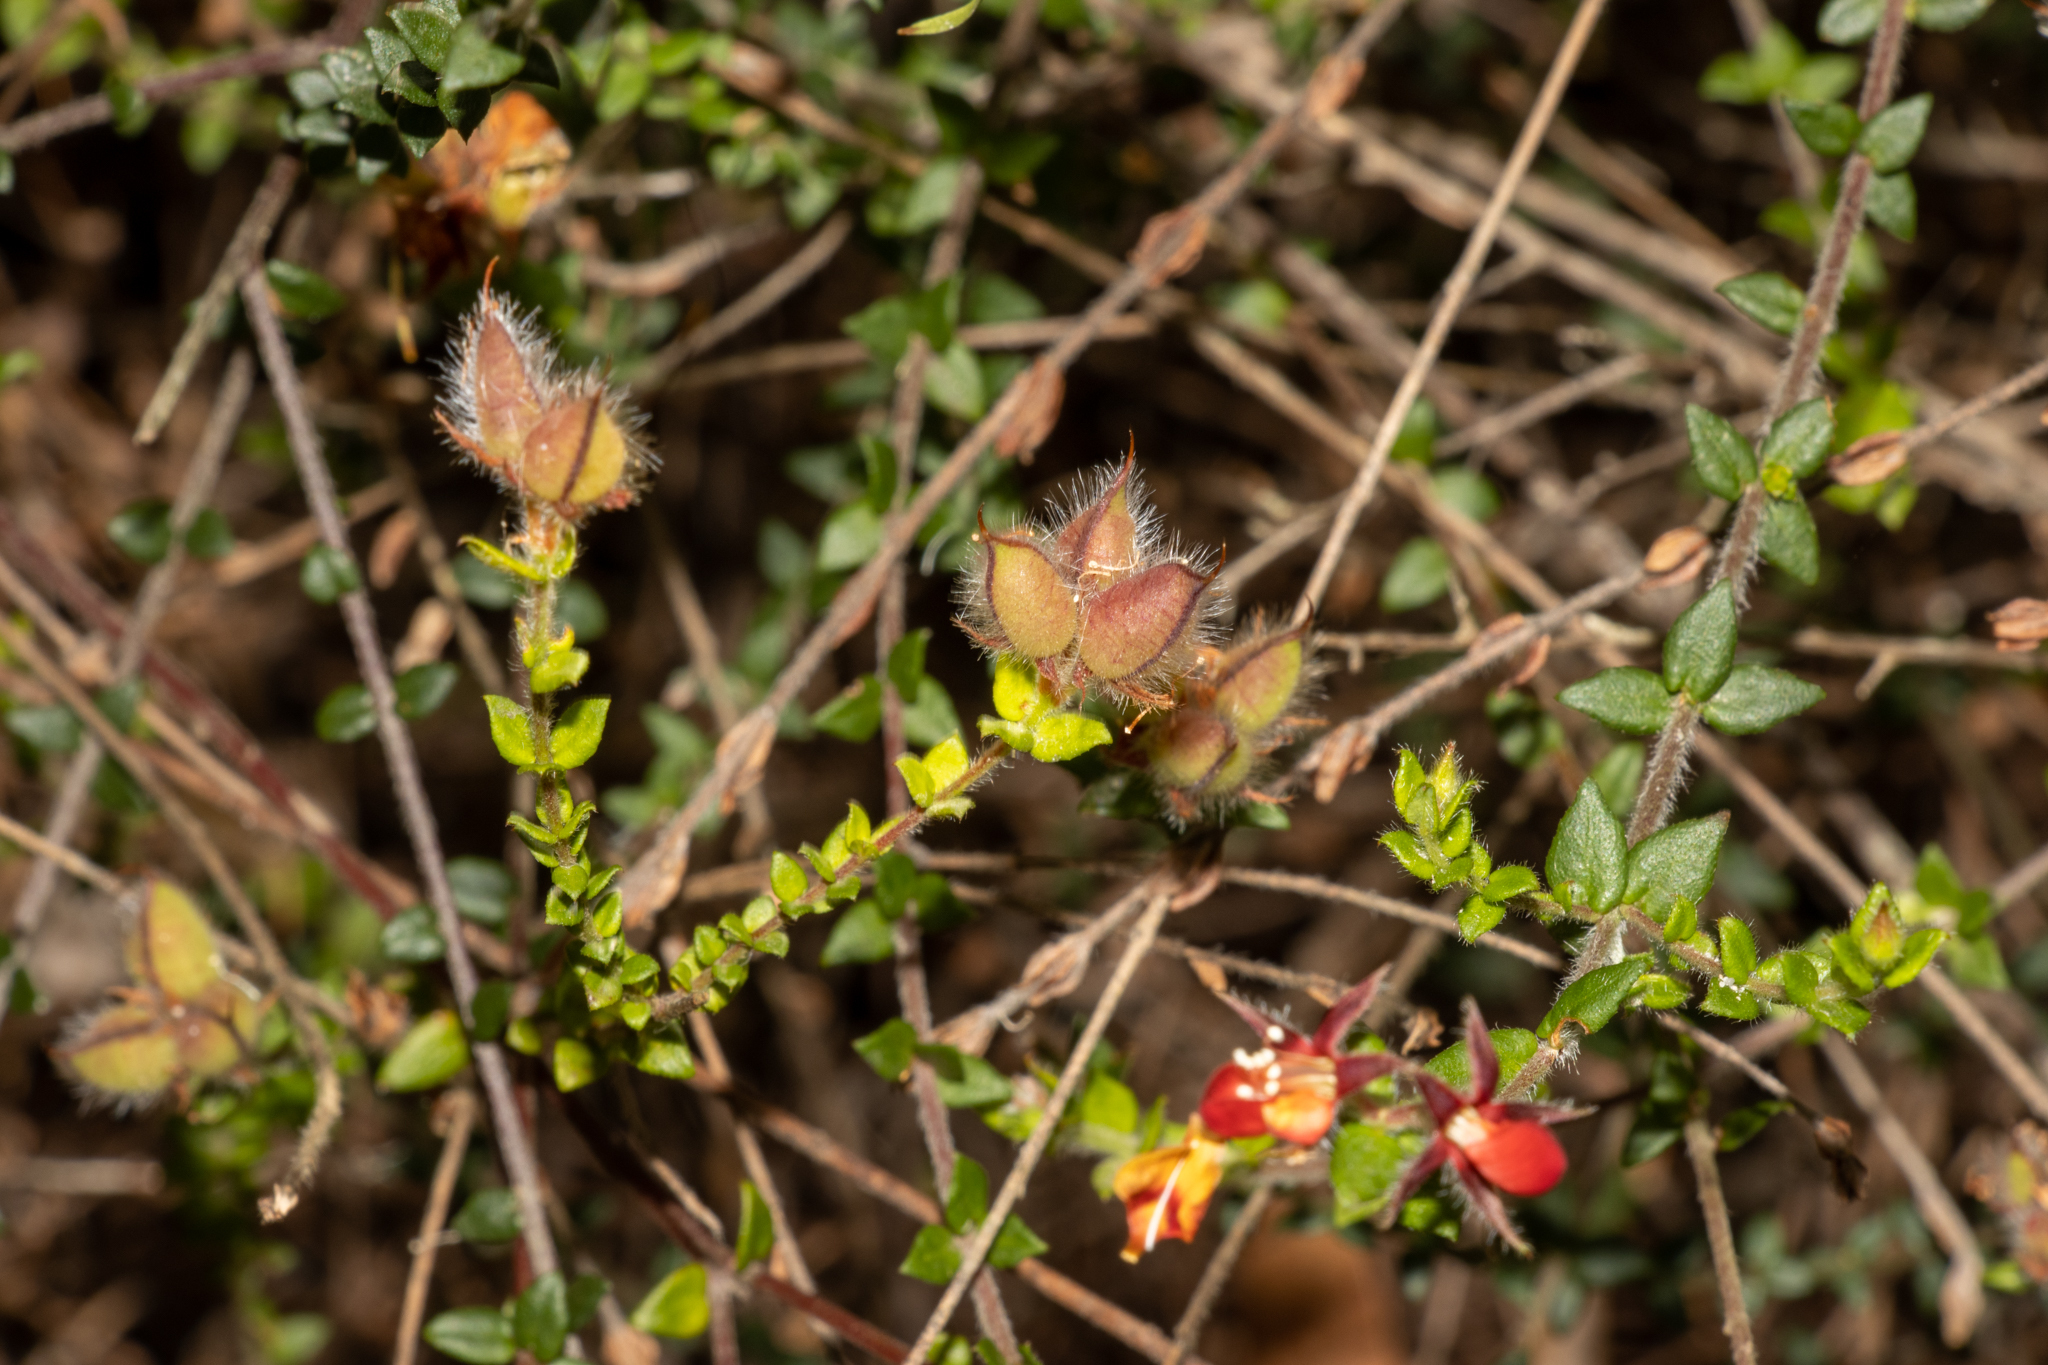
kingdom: Plantae
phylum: Tracheophyta
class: Magnoliopsida
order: Fabales
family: Fabaceae
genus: Oxylobium
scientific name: Oxylobium cordifolium
